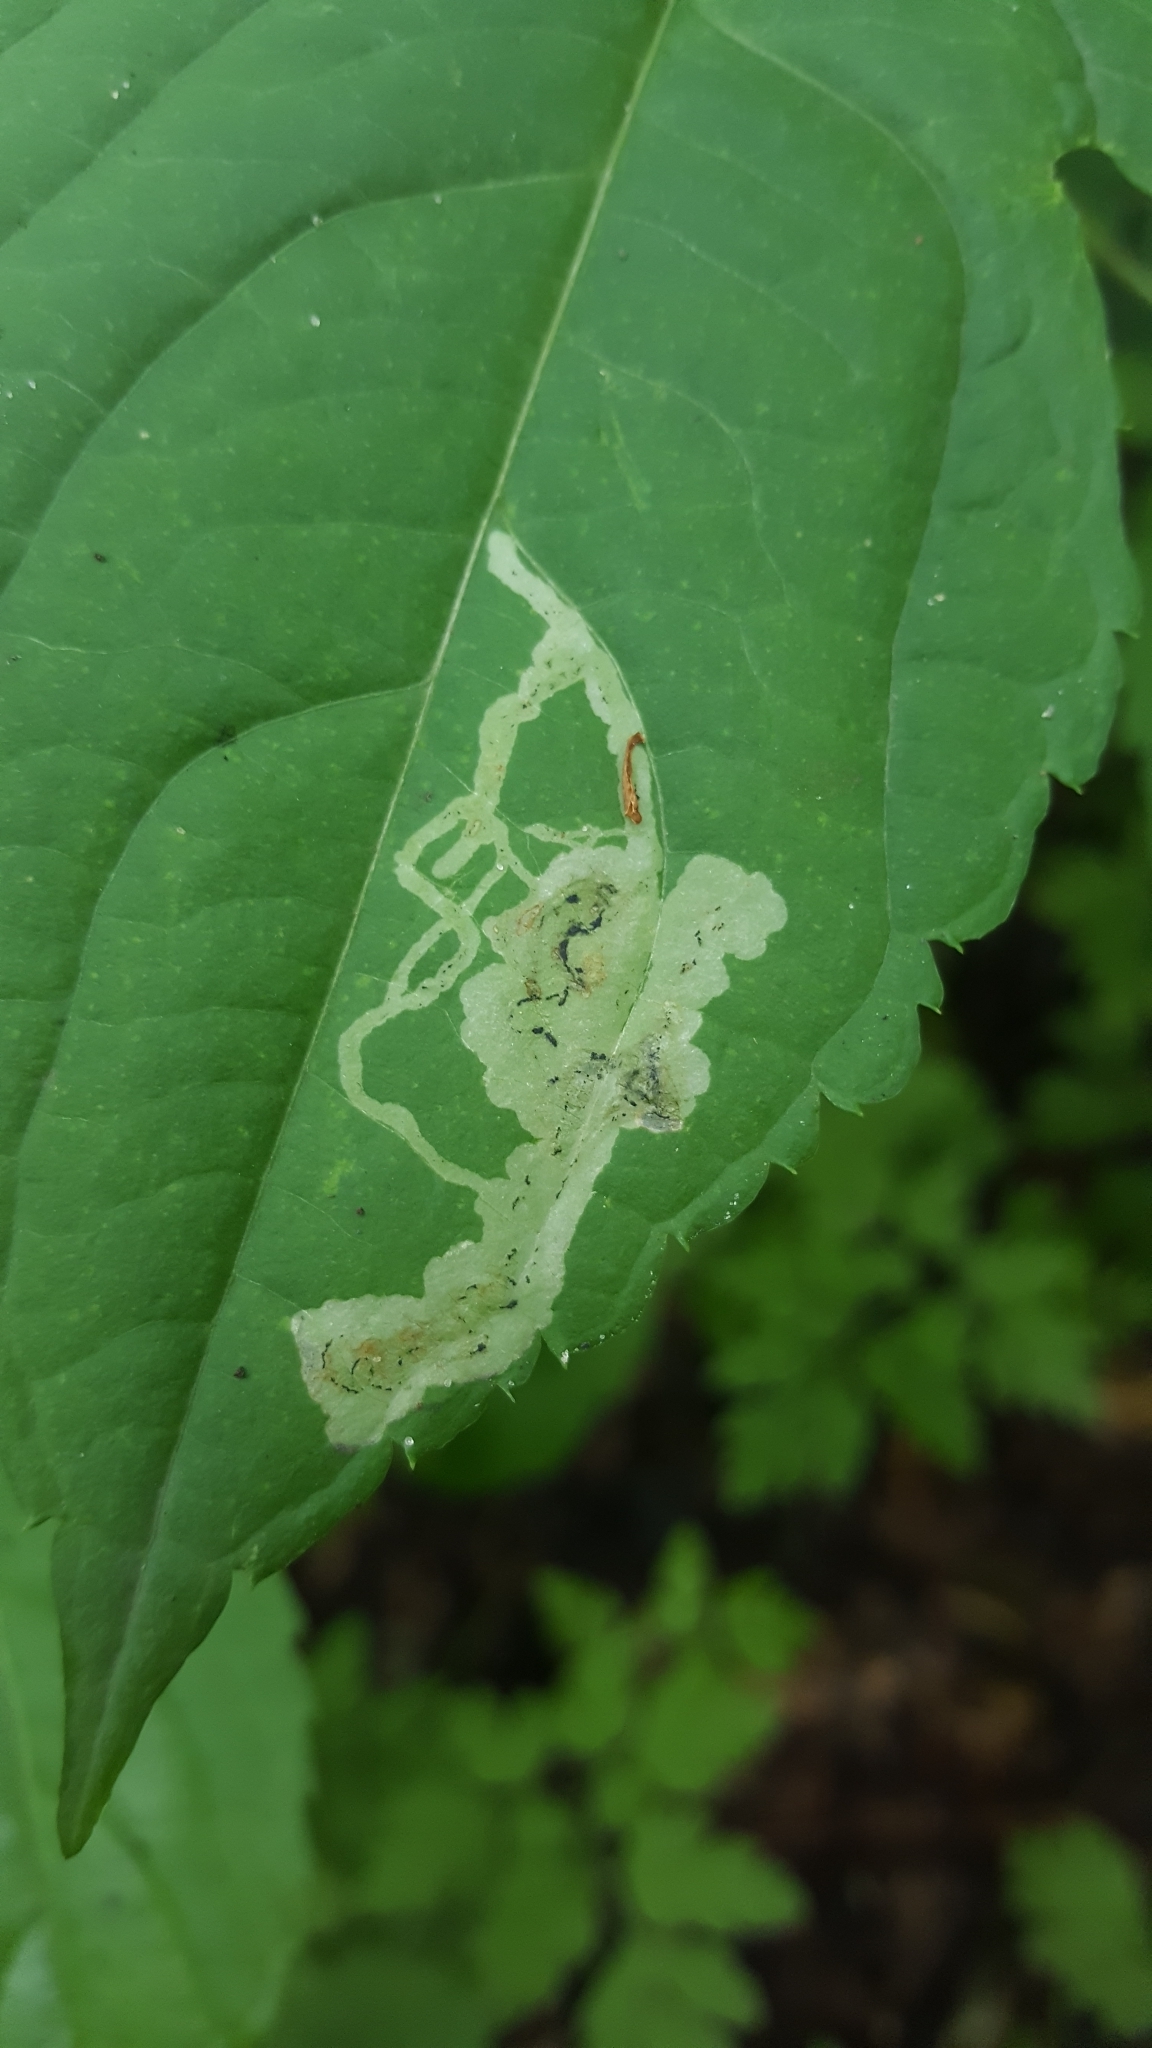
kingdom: Animalia
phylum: Arthropoda
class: Insecta
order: Diptera
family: Agromyzidae
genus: Phytoliriomyza
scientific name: Phytoliriomyza melampyga
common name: Jewelweed leaf-miner fly
